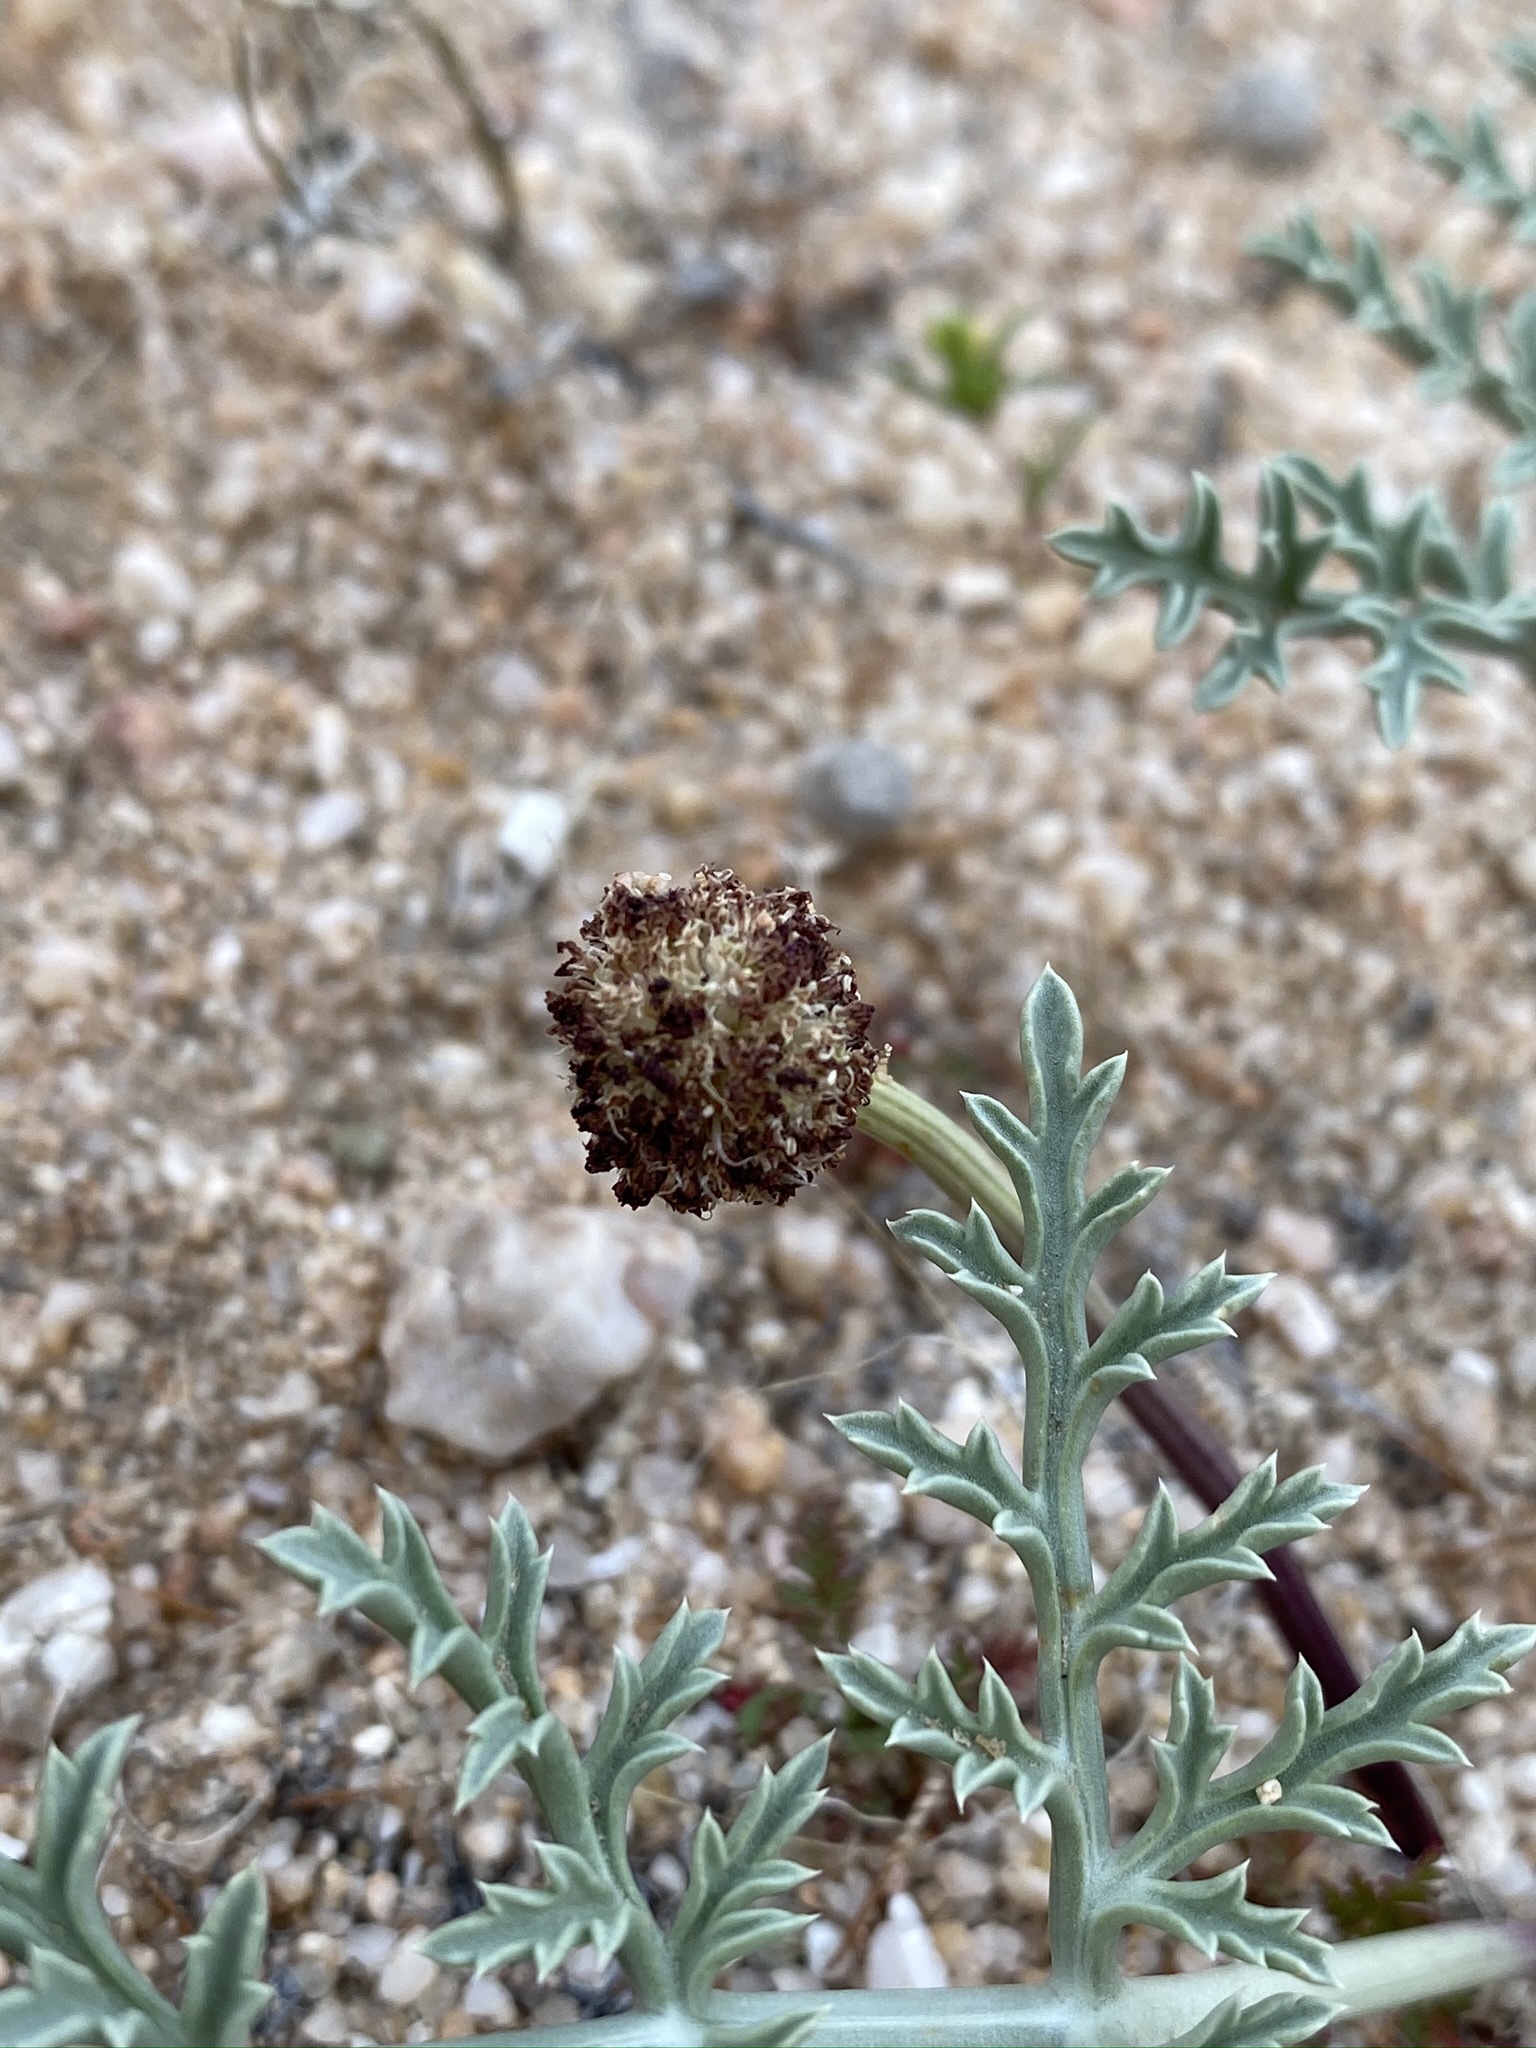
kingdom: Plantae
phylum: Tracheophyta
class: Magnoliopsida
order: Apiales
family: Apiaceae
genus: Cymopterus
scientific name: Cymopterus deserticola
